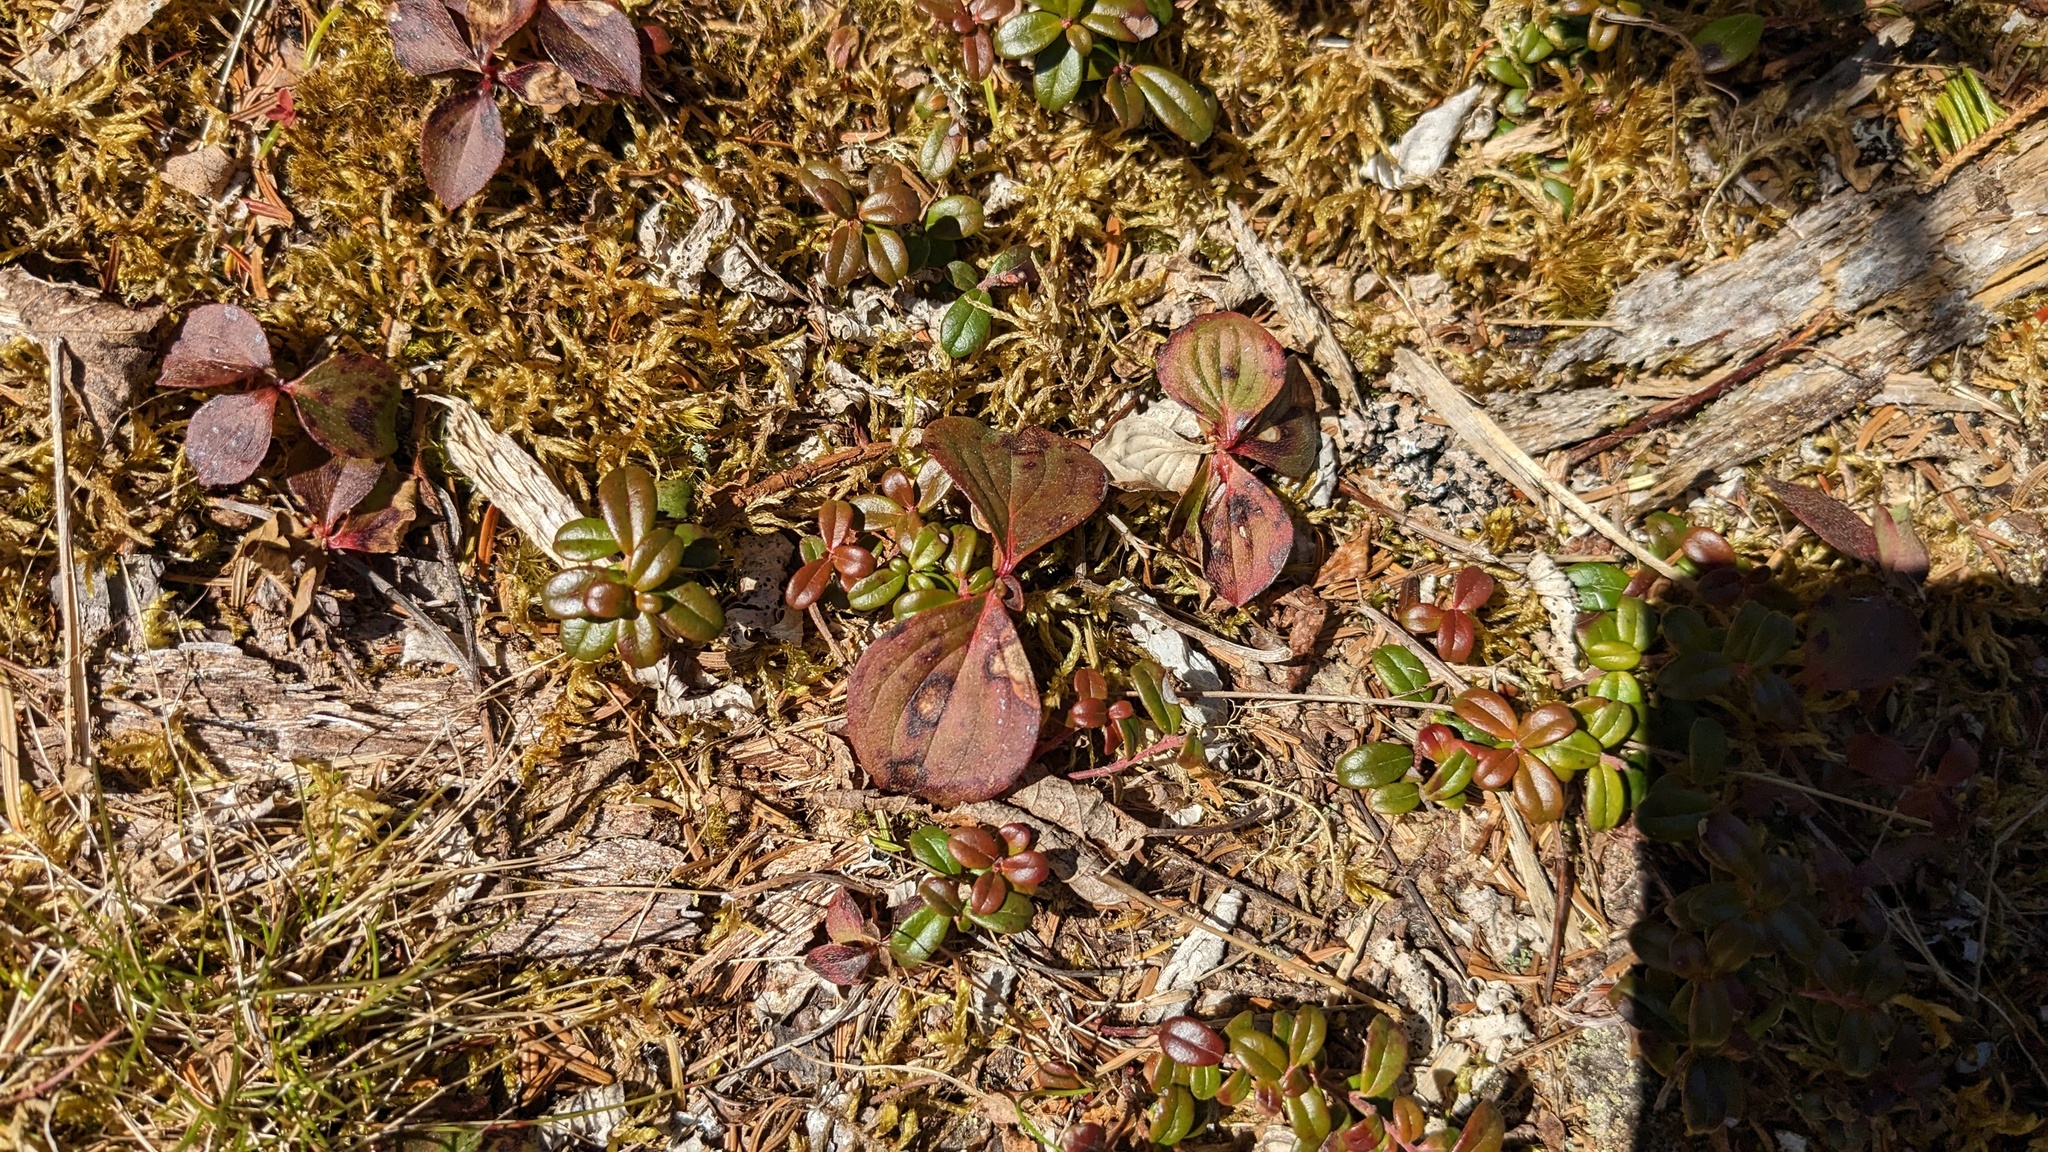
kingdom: Plantae
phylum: Tracheophyta
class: Magnoliopsida
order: Cornales
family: Cornaceae
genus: Cornus
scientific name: Cornus canadensis
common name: Creeping dogwood
